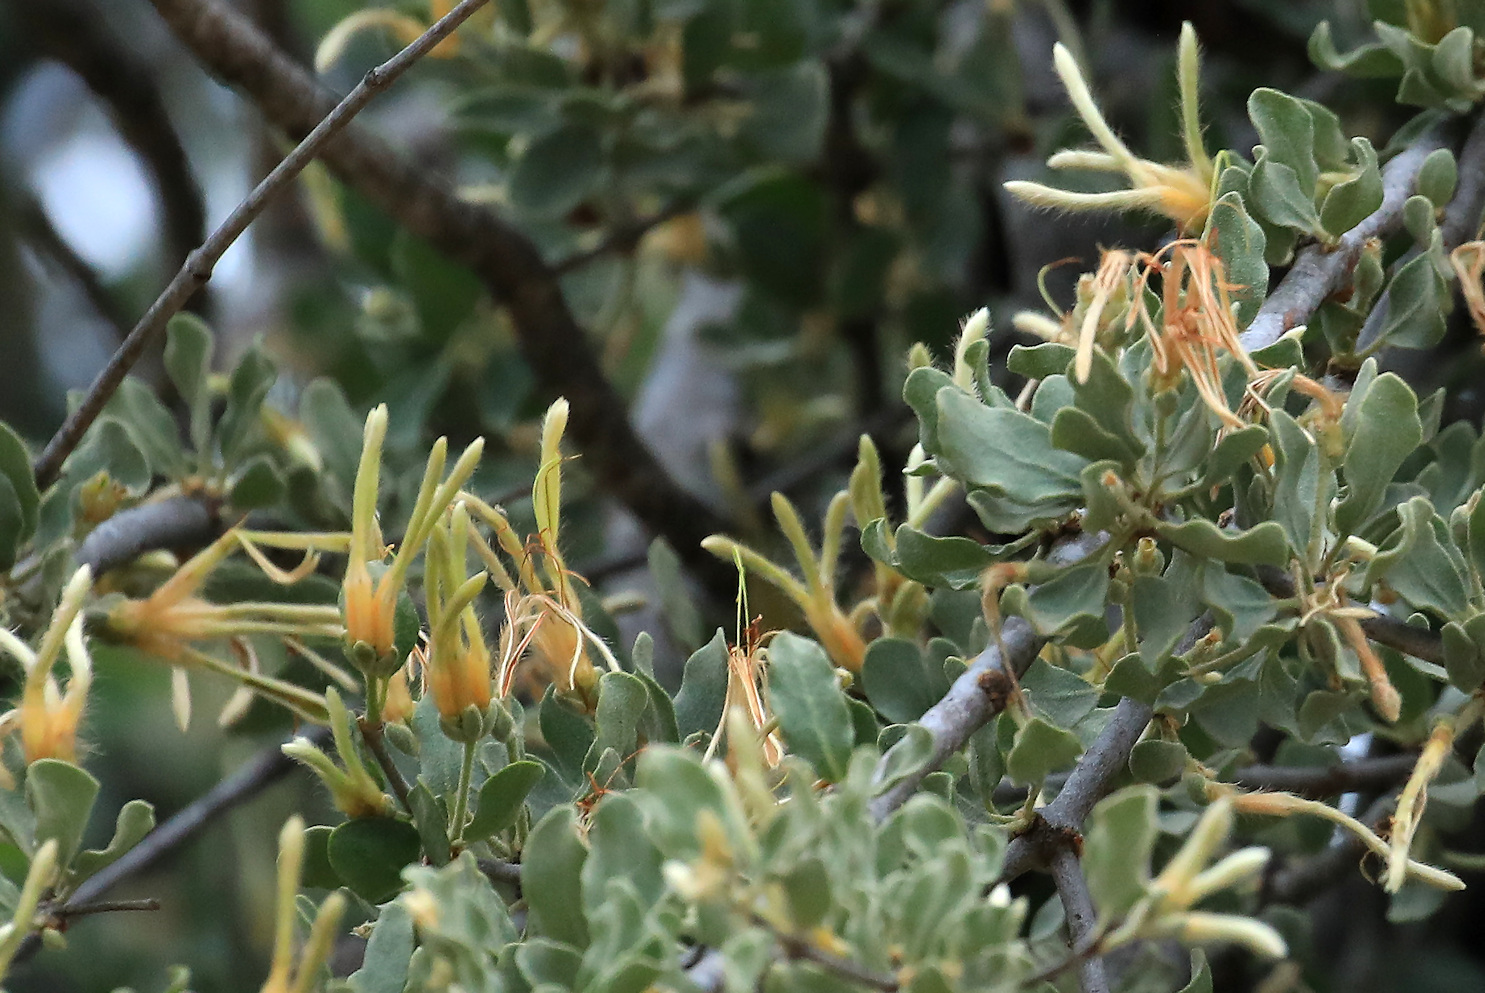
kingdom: Plantae
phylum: Tracheophyta
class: Magnoliopsida
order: Santalales
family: Loranthaceae
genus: Erianthemum
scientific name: Erianthemum ngamicum
